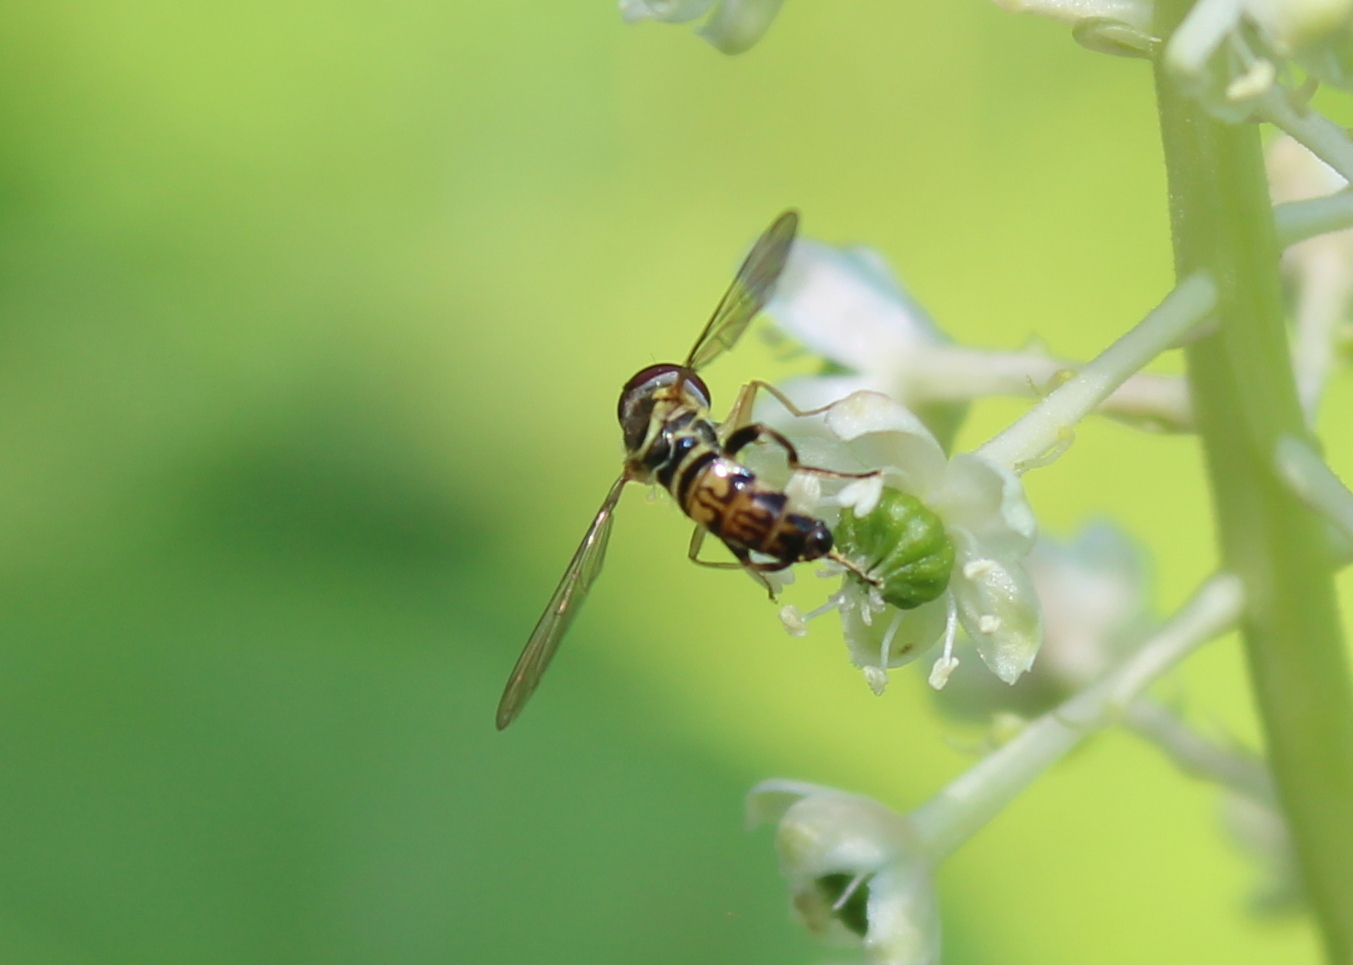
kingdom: Animalia
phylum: Arthropoda
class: Insecta
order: Diptera
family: Syrphidae
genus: Toxomerus
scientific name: Toxomerus geminatus
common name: Eastern calligrapher
